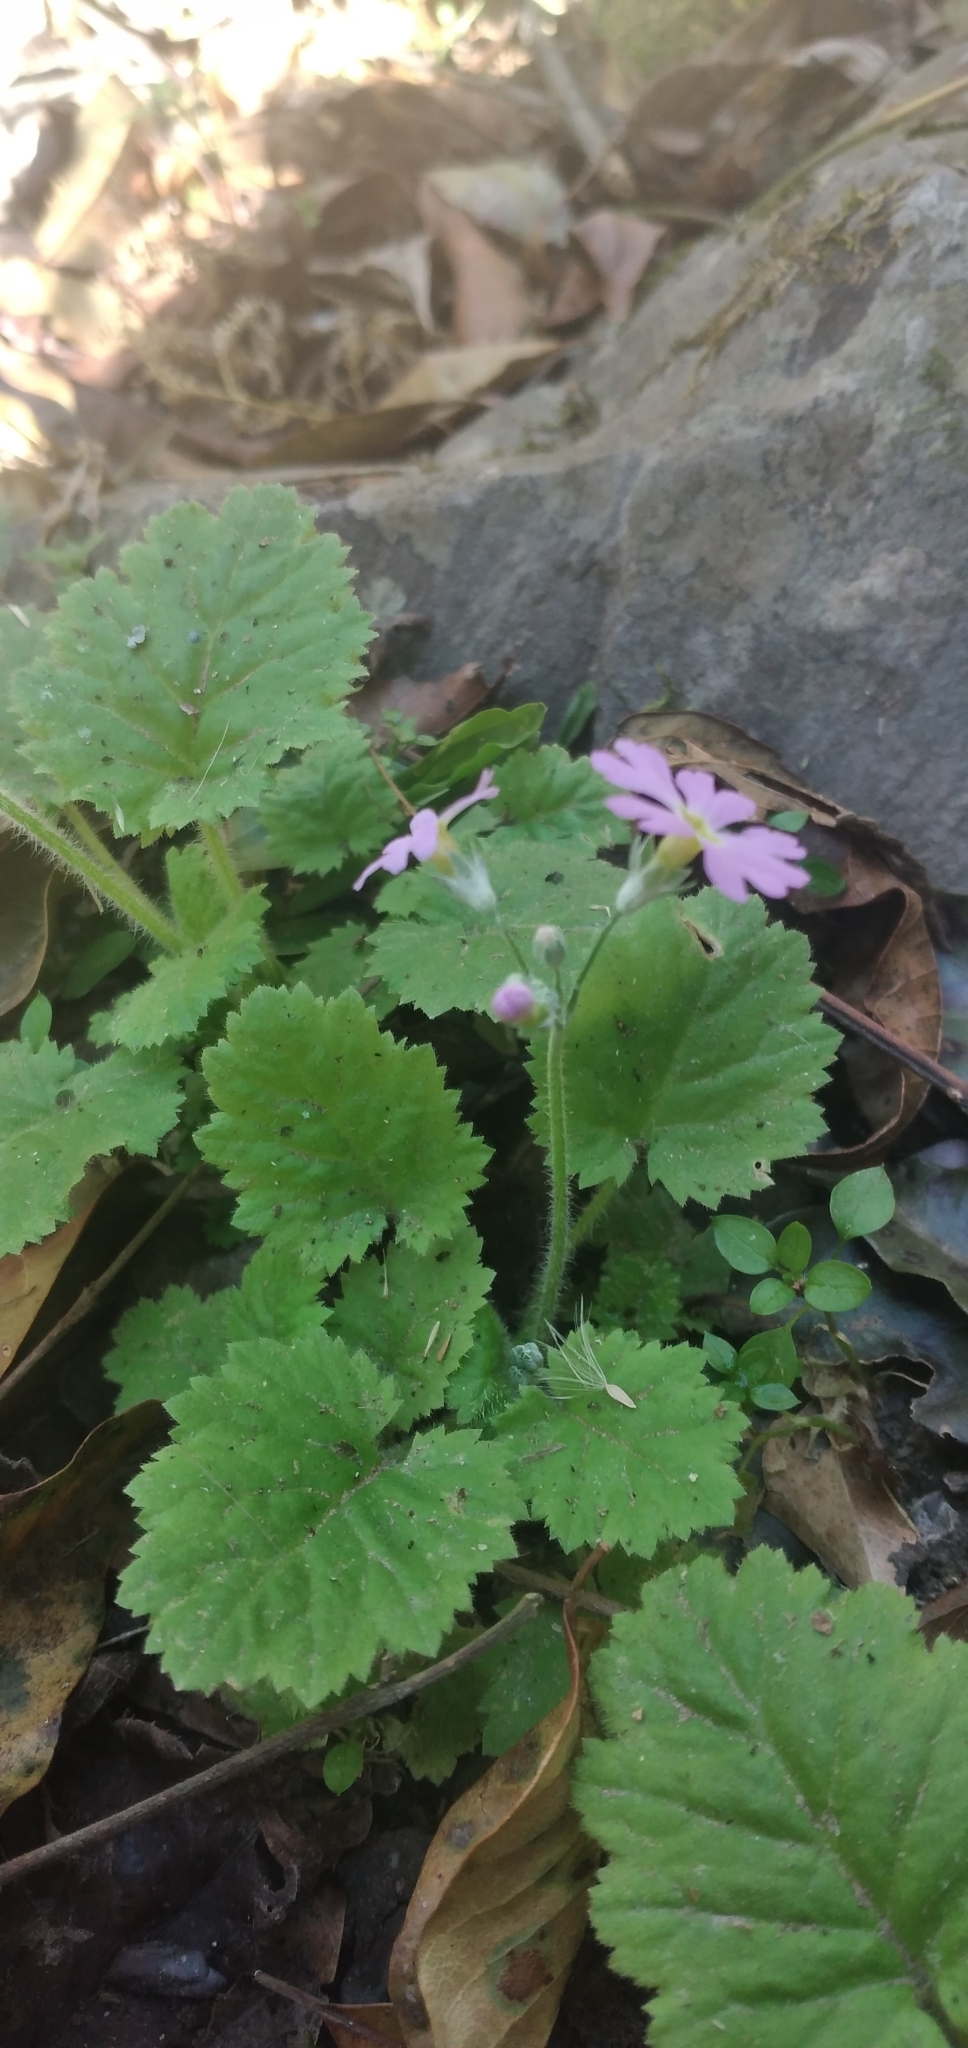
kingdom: Plantae
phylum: Tracheophyta
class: Magnoliopsida
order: Ericales
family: Primulaceae
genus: Primula
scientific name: Primula malacoides
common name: Baby primrose
